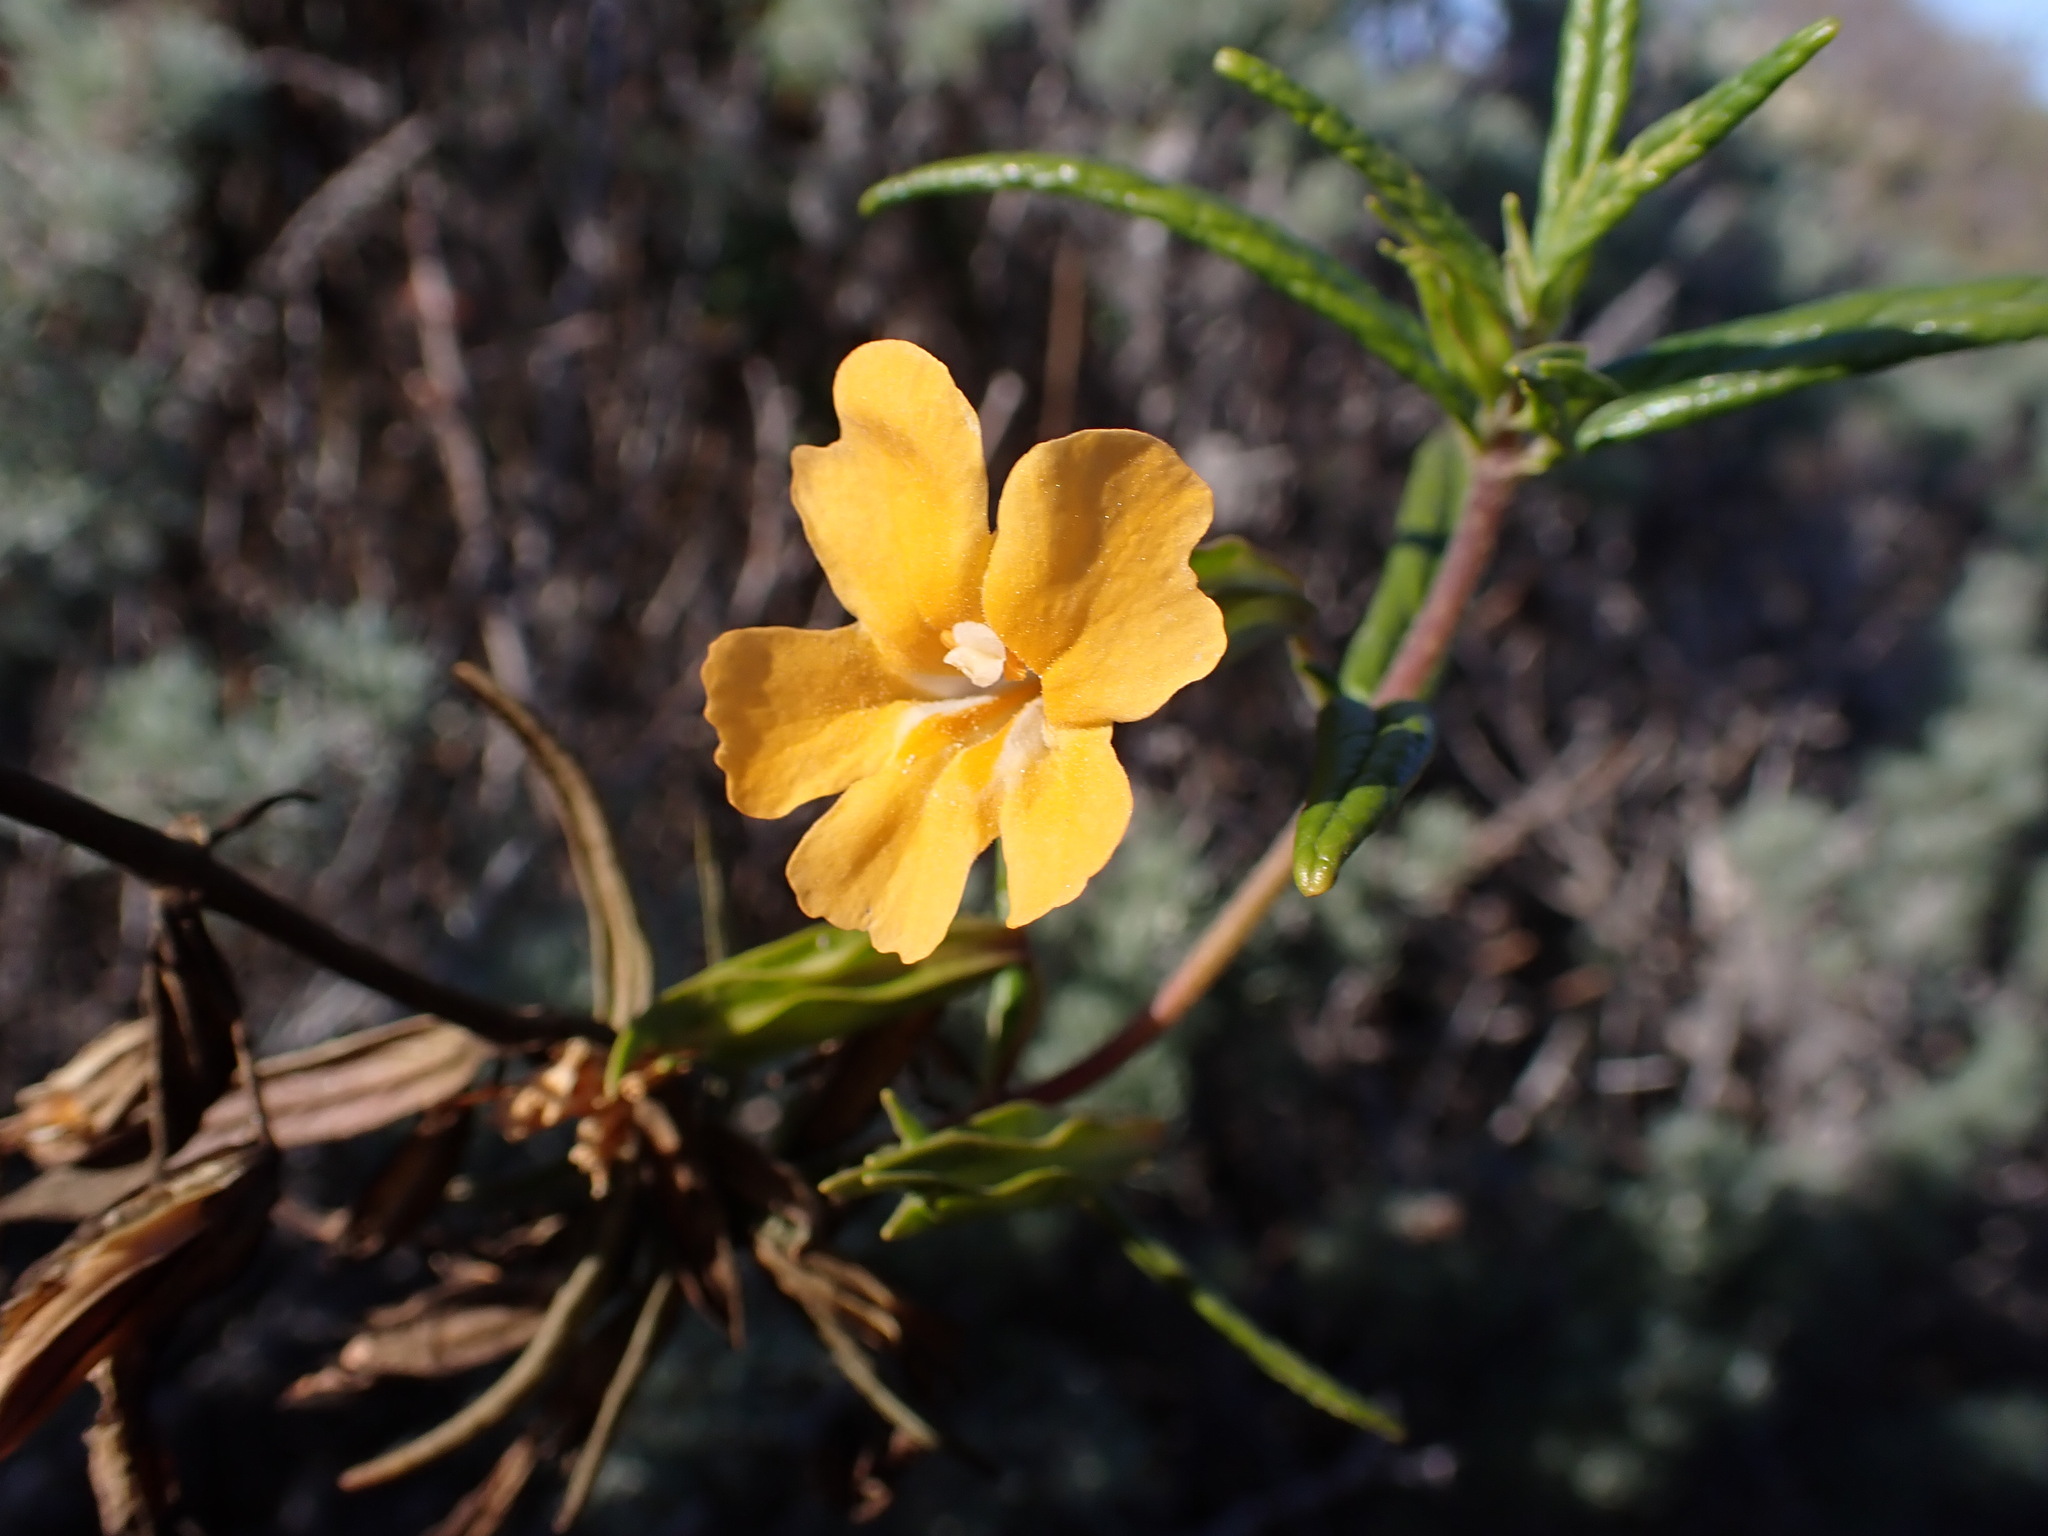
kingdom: Plantae
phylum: Tracheophyta
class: Magnoliopsida
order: Lamiales
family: Phrymaceae
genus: Diplacus
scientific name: Diplacus aurantiacus
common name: Bush monkey-flower
